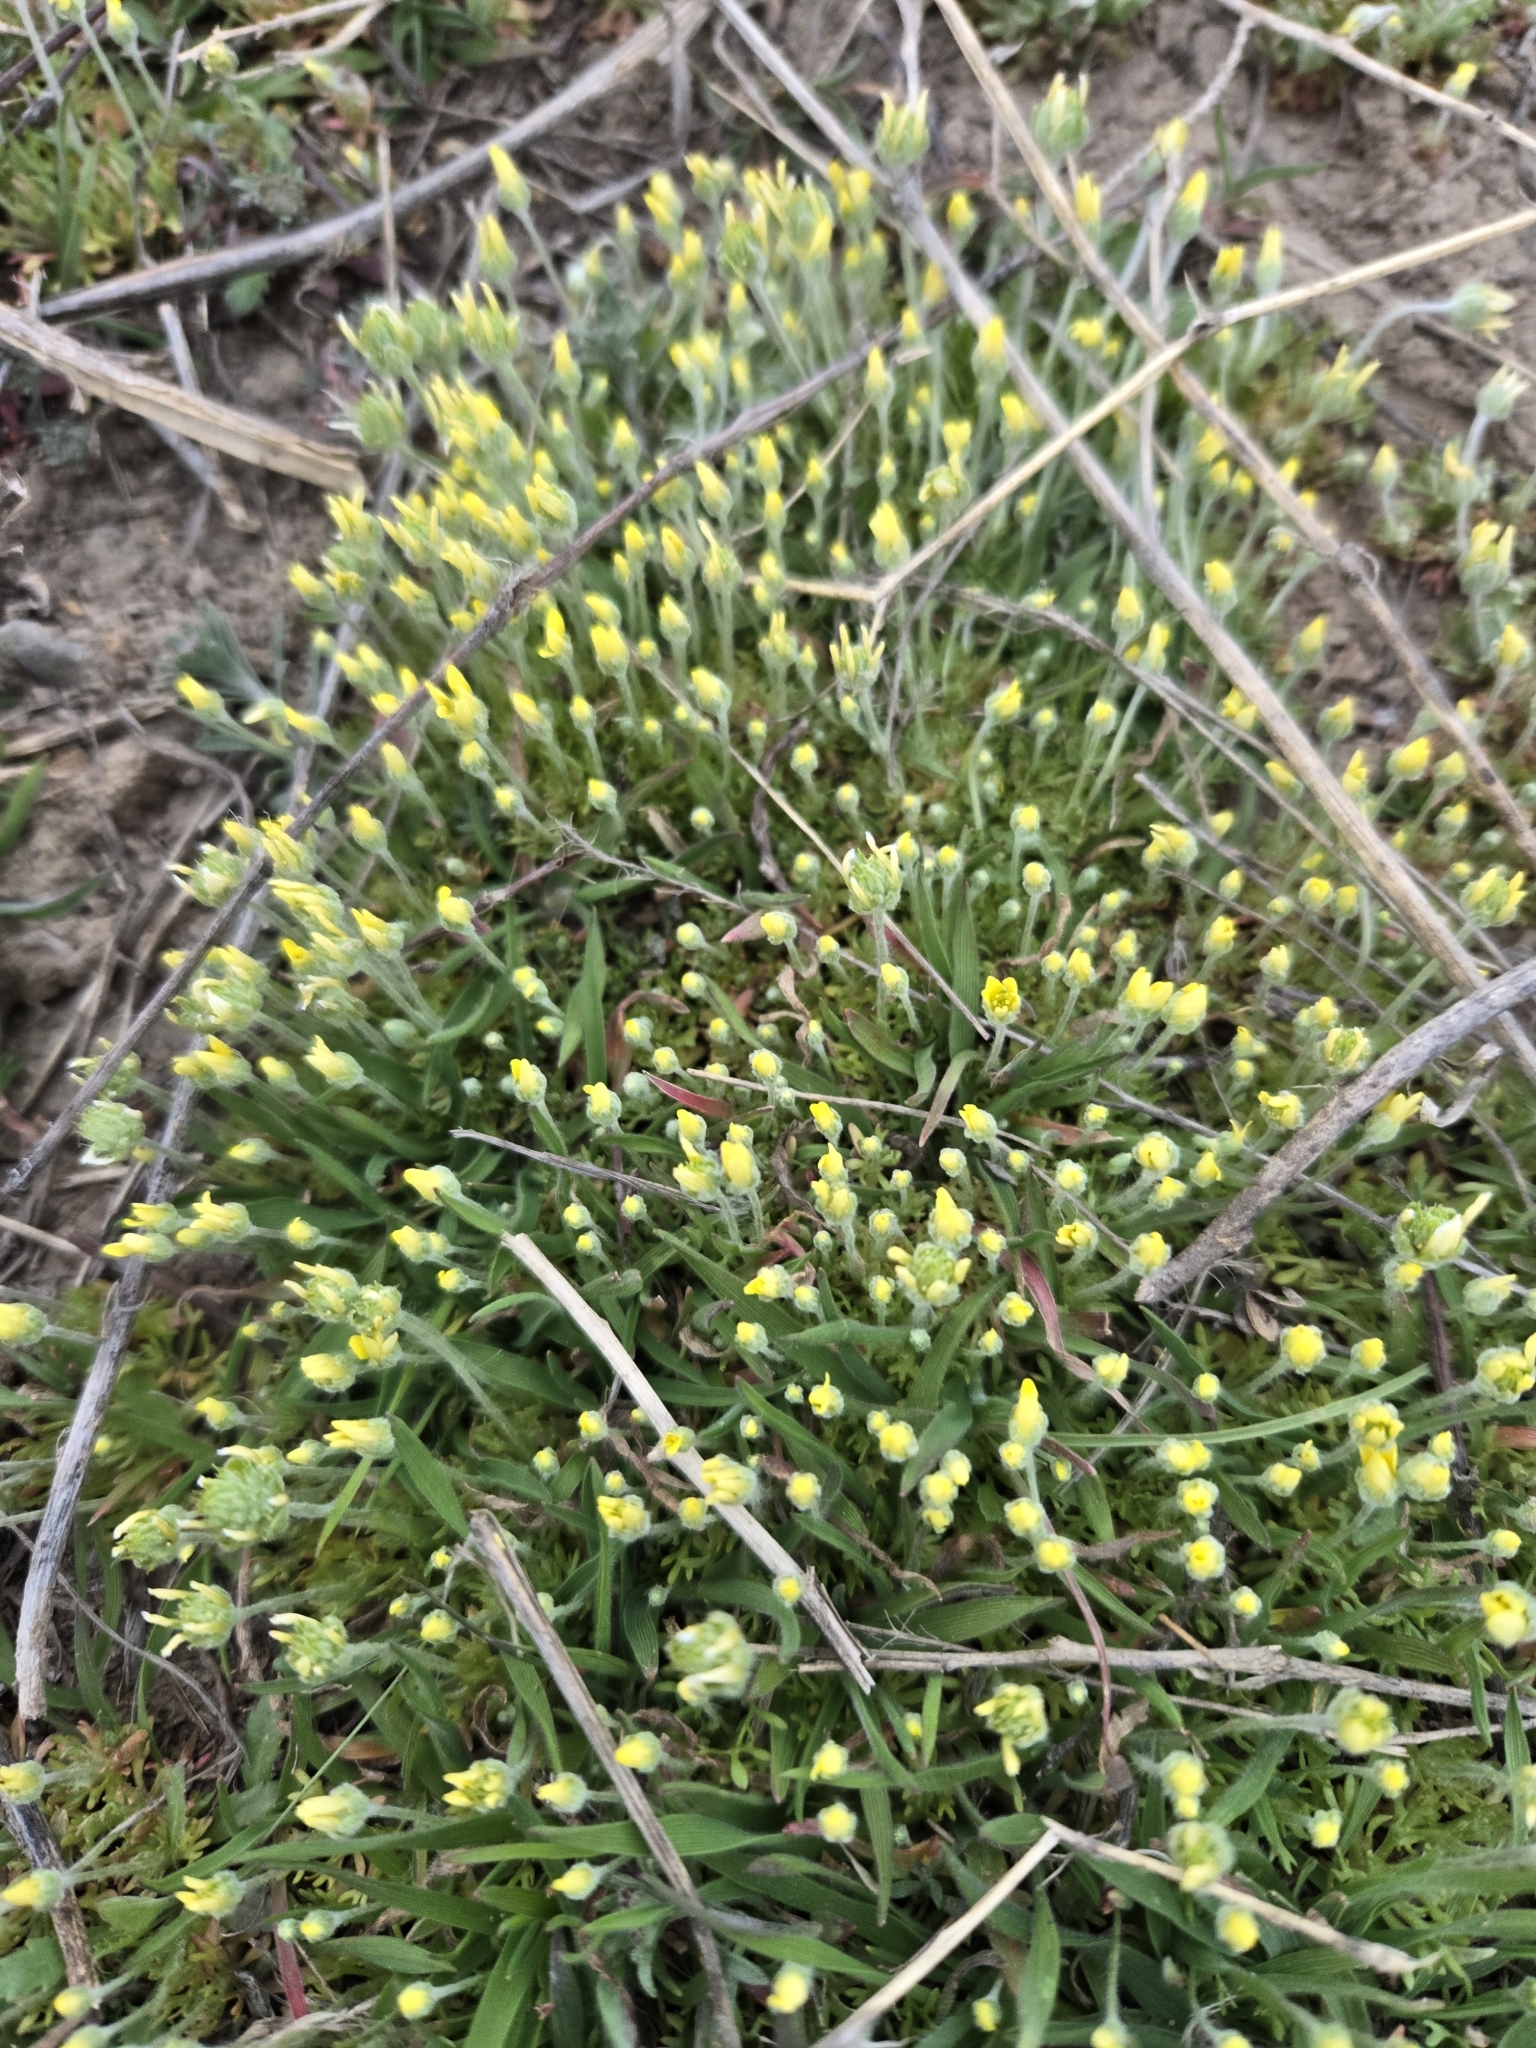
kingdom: Plantae
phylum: Tracheophyta
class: Magnoliopsida
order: Ranunculales
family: Ranunculaceae
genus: Ceratocephala
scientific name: Ceratocephala orthoceras
